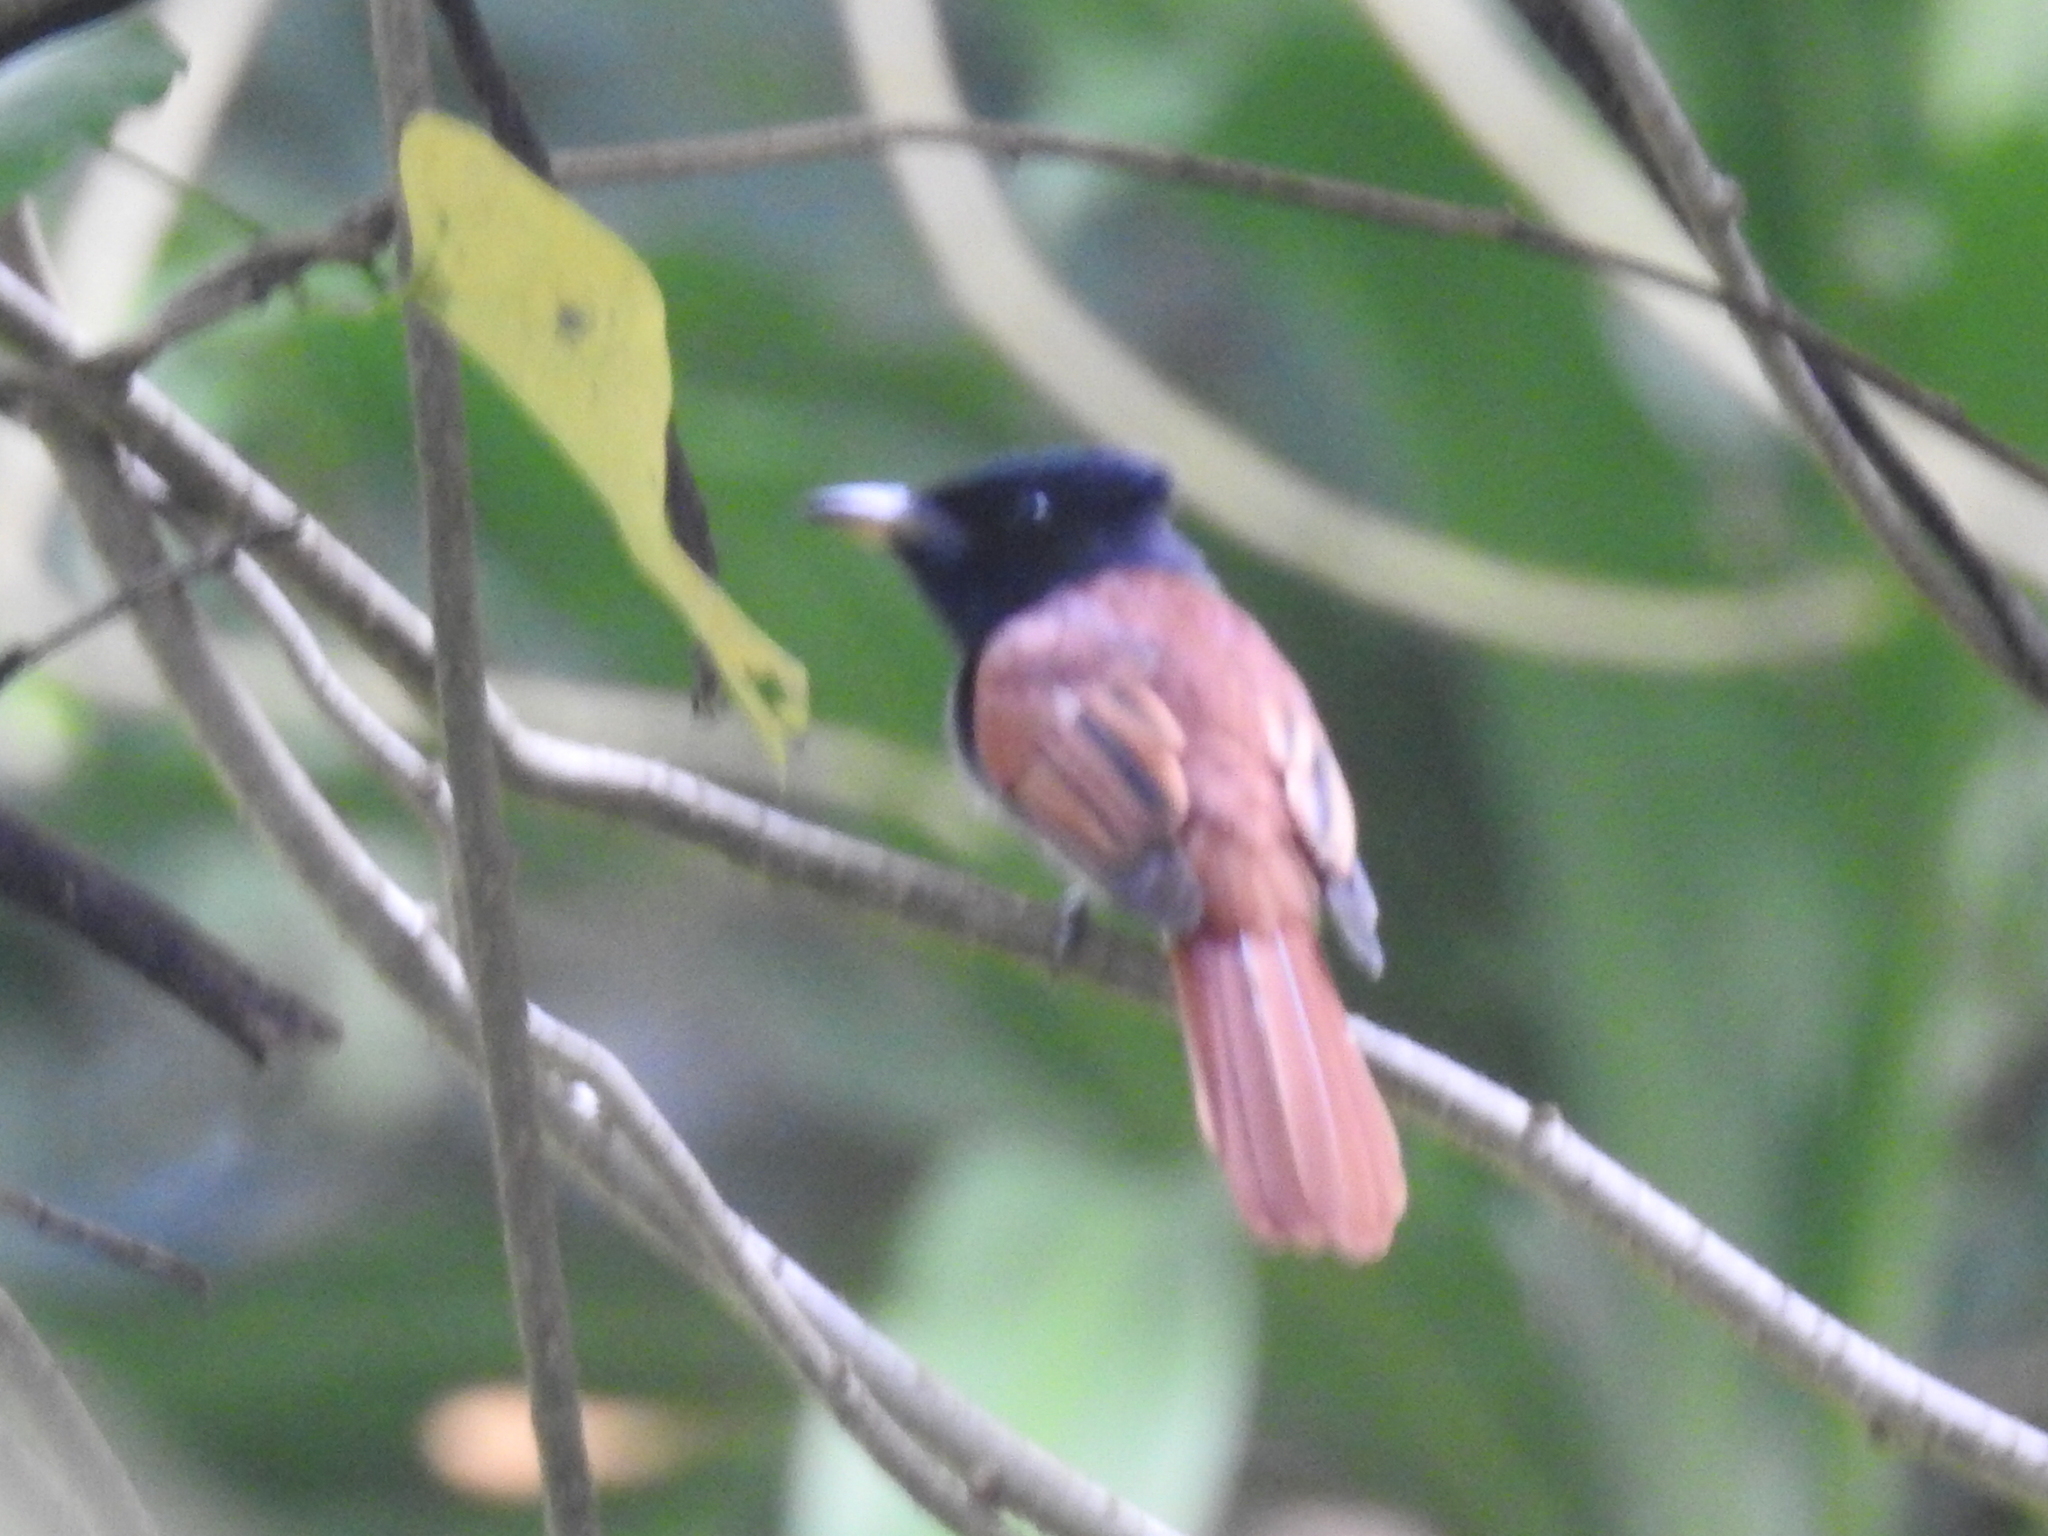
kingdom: Animalia
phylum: Chordata
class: Aves
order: Passeriformes
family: Monarchidae
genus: Terpsiphone
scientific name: Terpsiphone paradisi
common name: Indian paradise flycatcher
